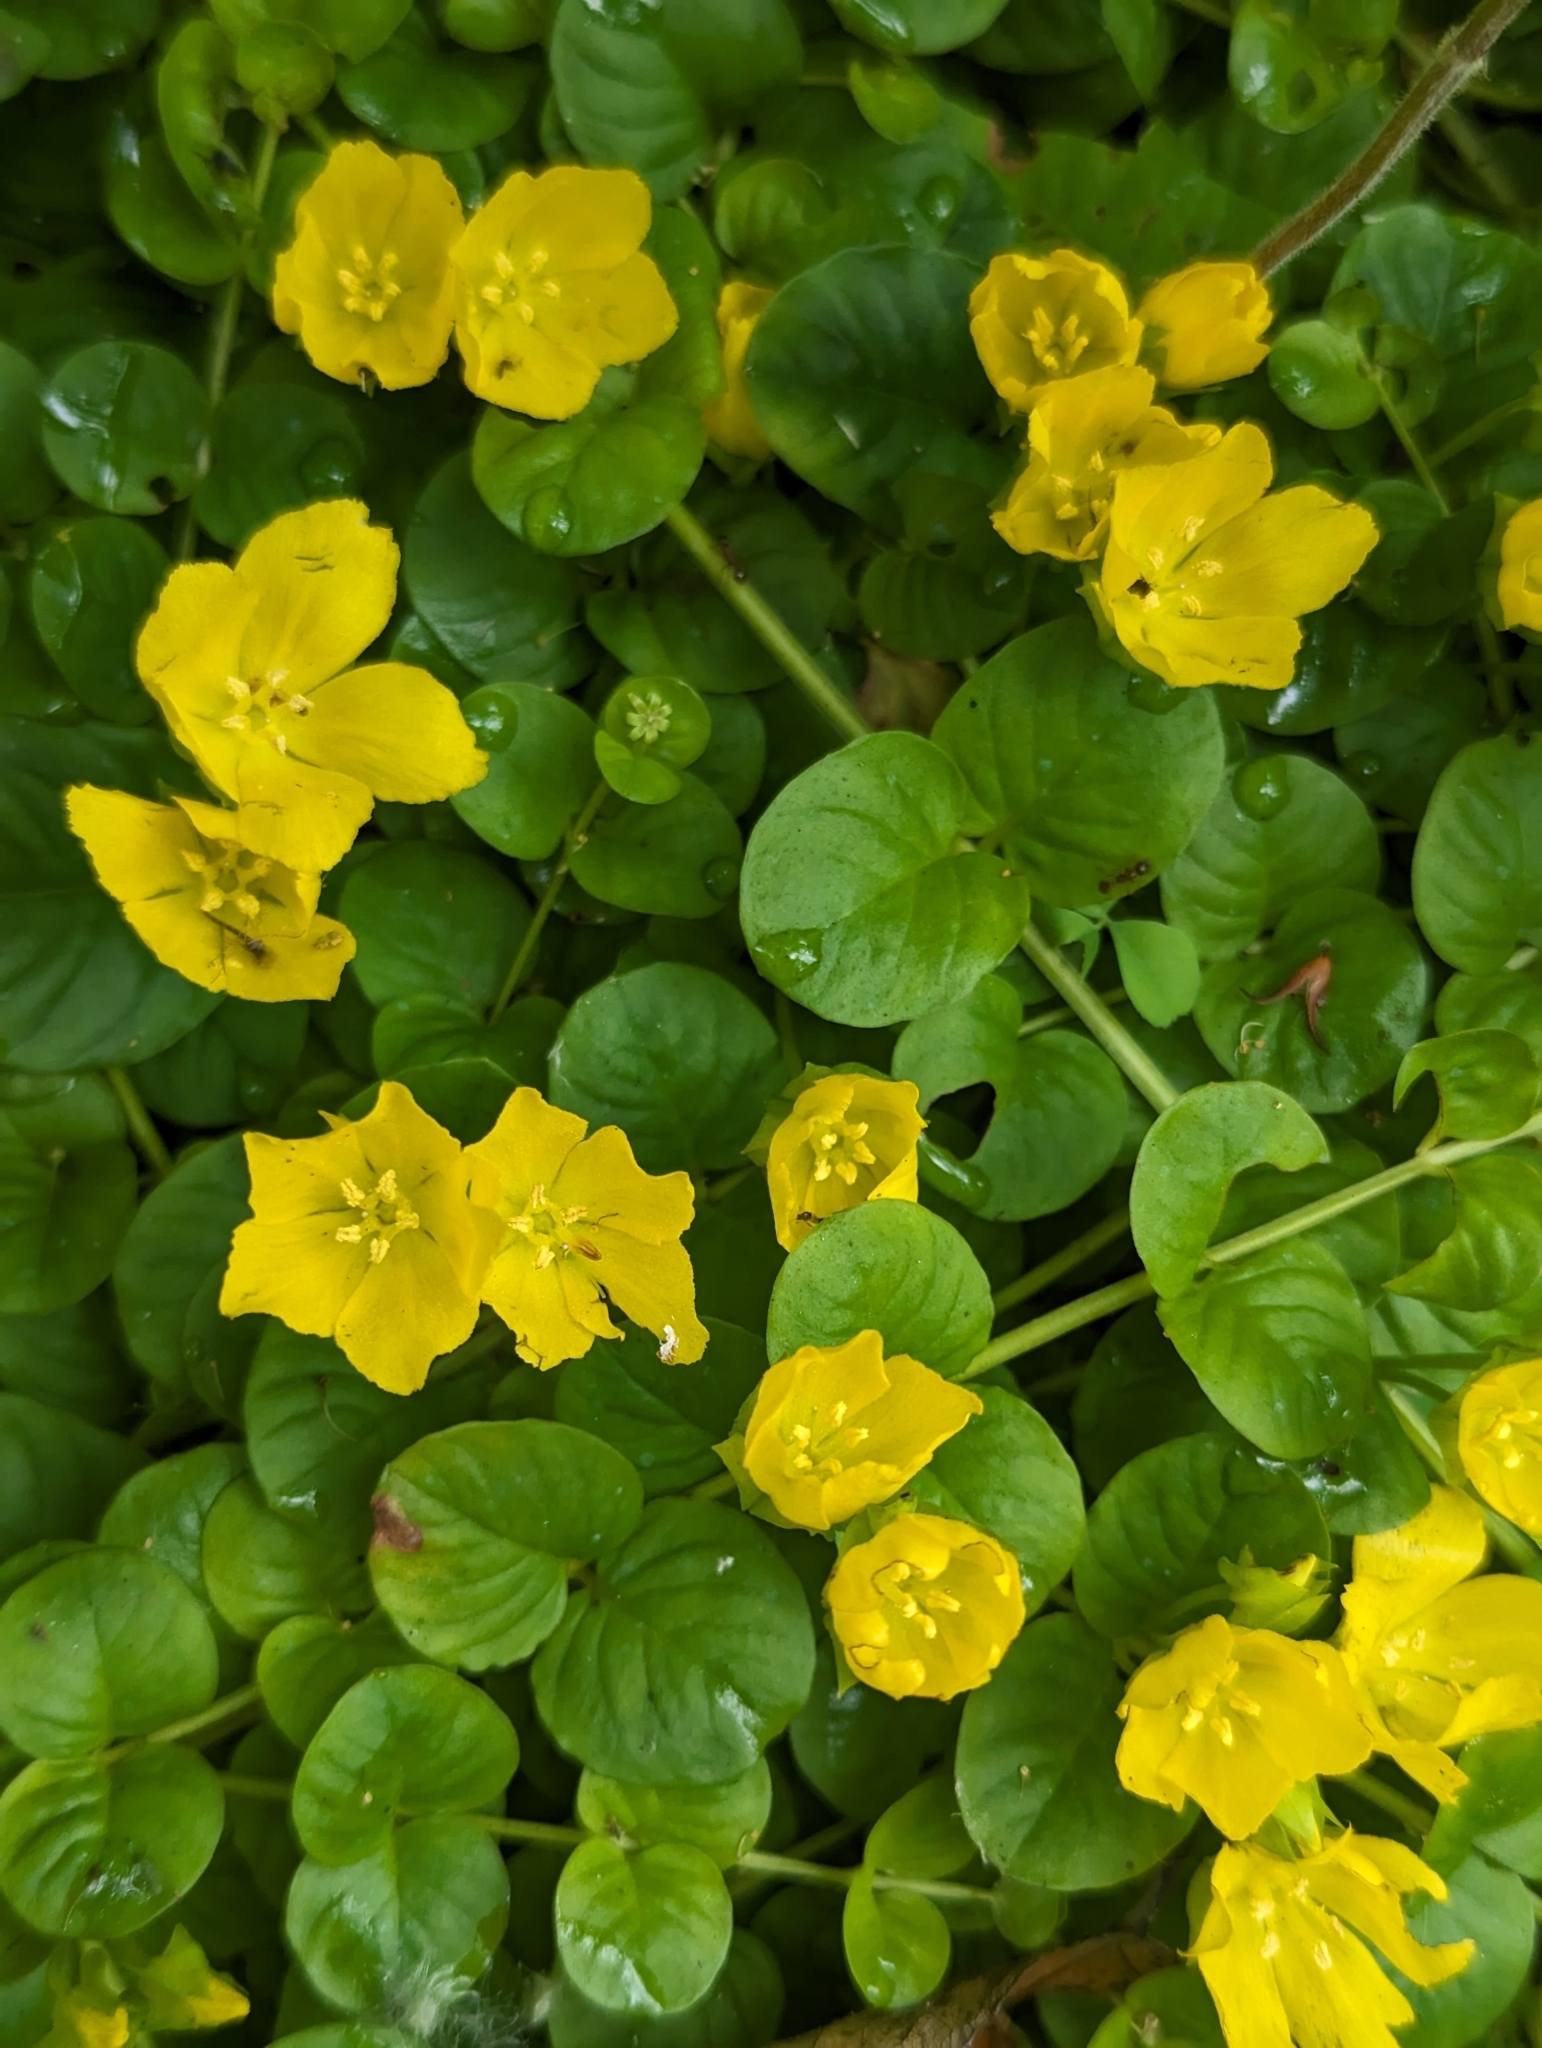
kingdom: Plantae
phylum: Tracheophyta
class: Magnoliopsida
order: Ericales
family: Primulaceae
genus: Lysimachia
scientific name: Lysimachia nummularia
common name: Moneywort
